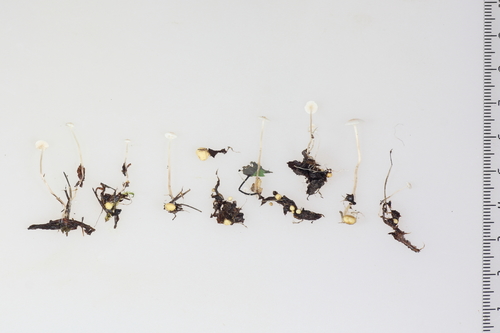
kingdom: Fungi
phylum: Basidiomycota
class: Agaricomycetes
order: Agaricales
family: Tricholomataceae
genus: Collybia
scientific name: Collybia cookei
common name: Splitpea shanklet
